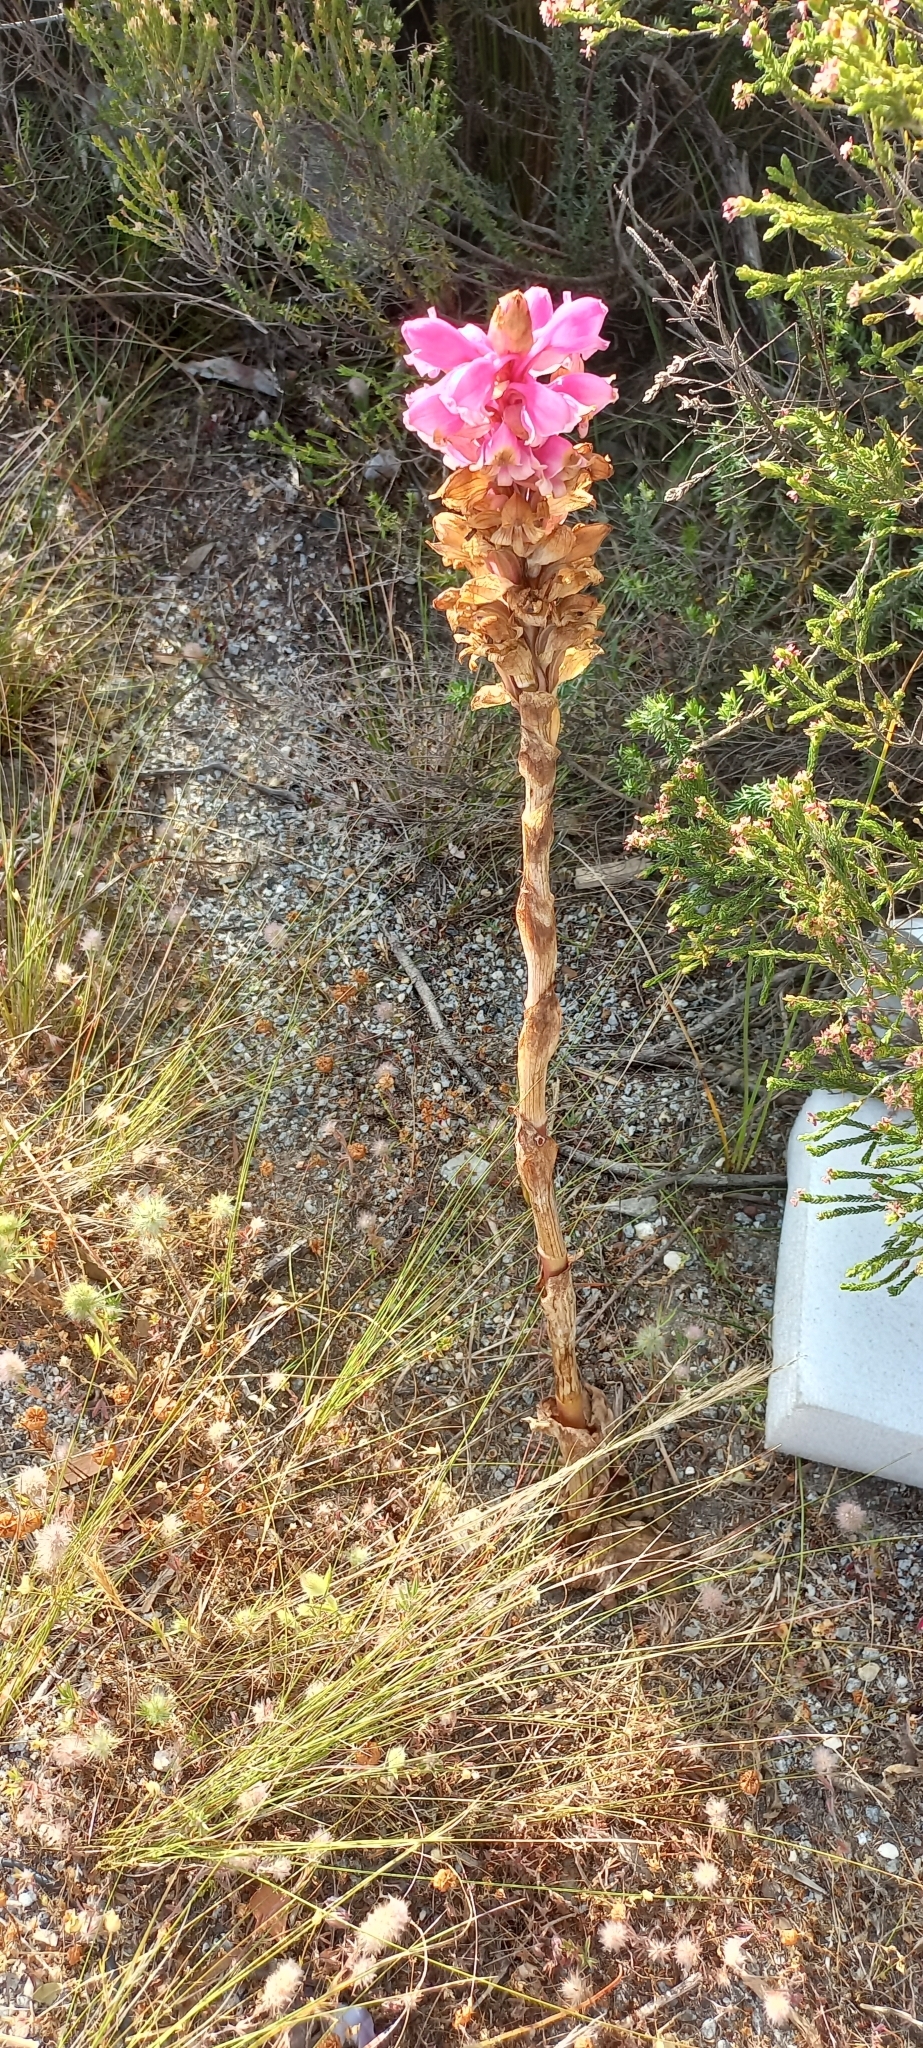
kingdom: Plantae
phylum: Tracheophyta
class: Liliopsida
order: Asparagales
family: Orchidaceae
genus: Satyrium
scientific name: Satyrium carneum
